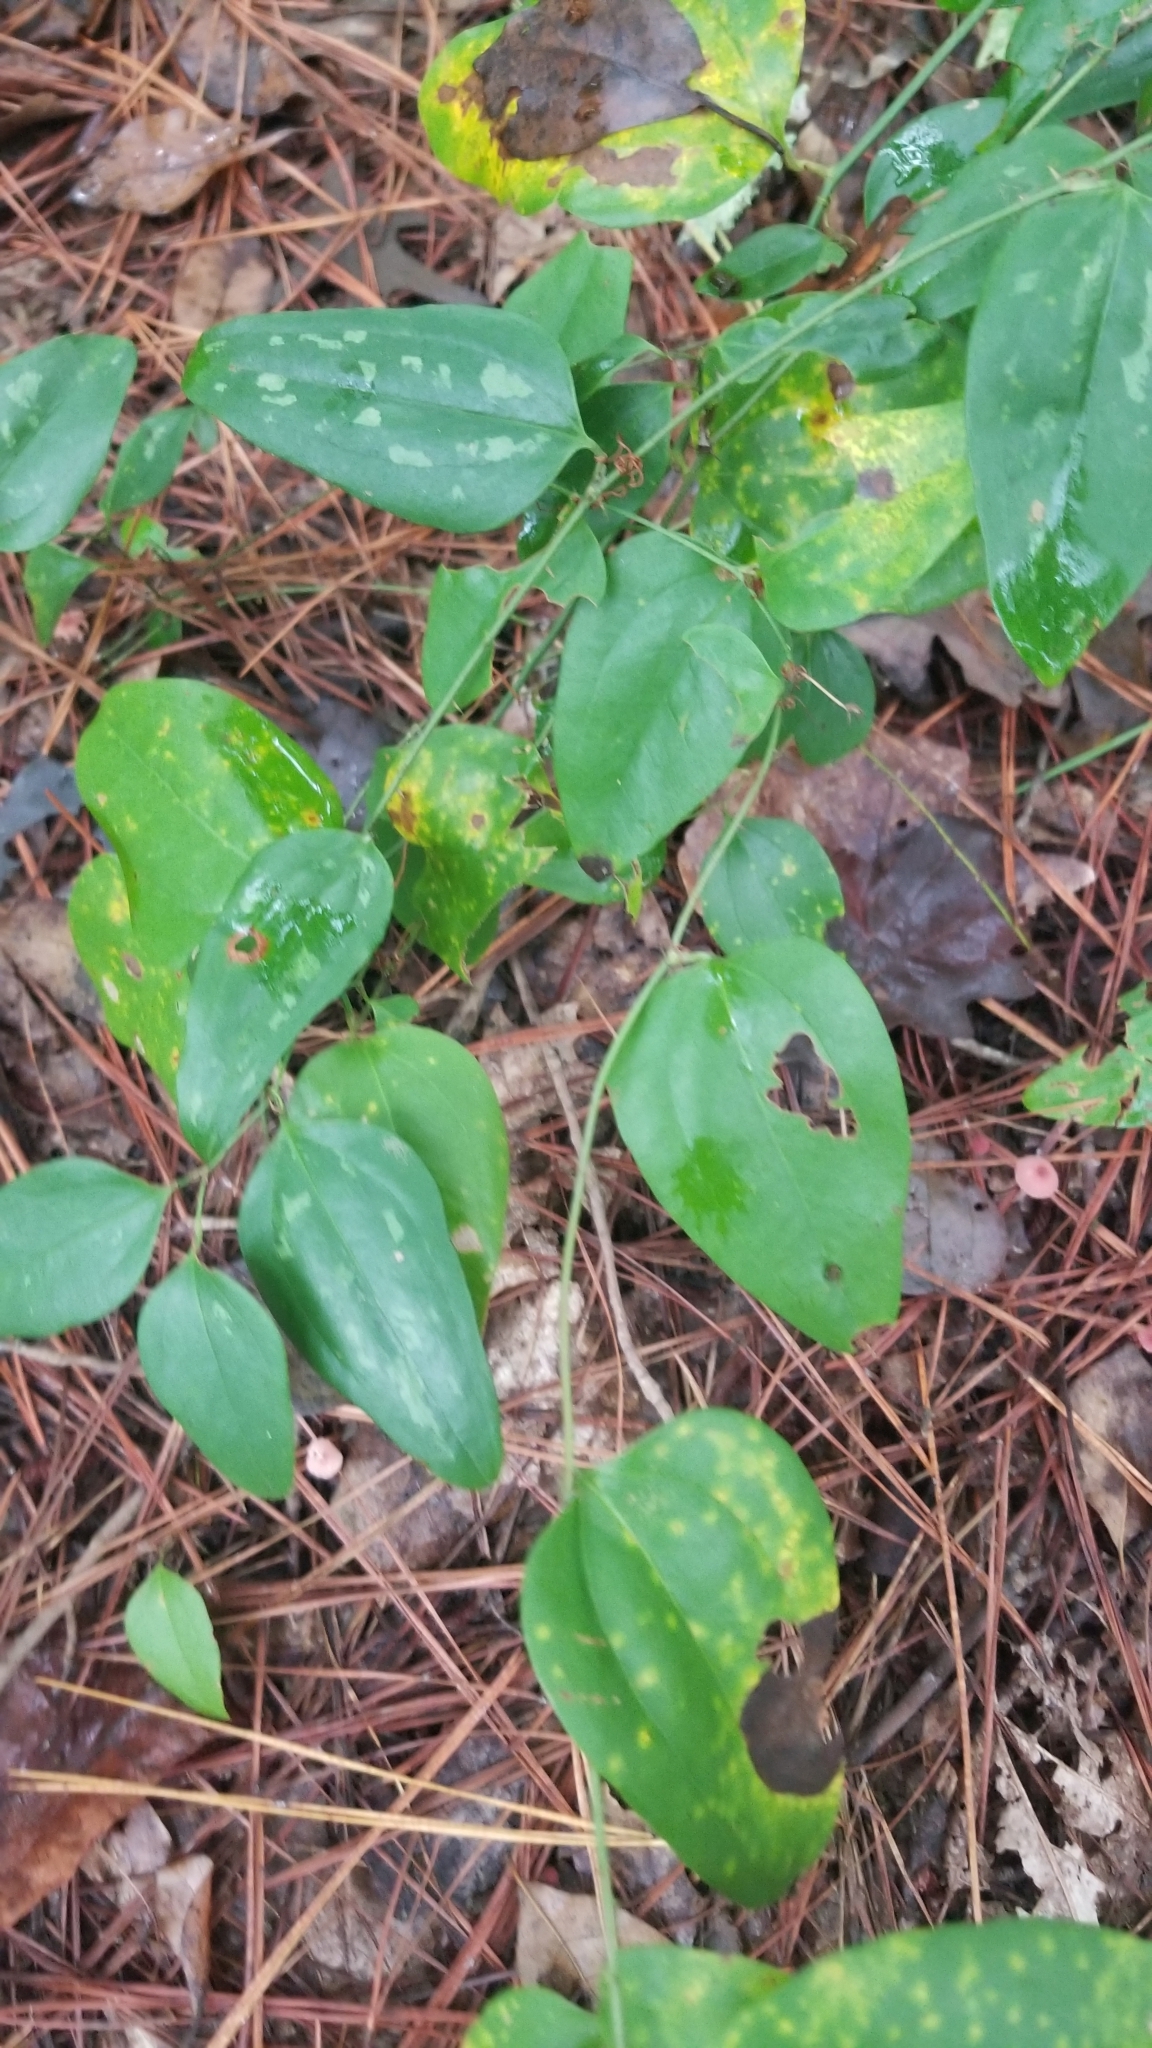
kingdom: Plantae
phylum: Tracheophyta
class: Liliopsida
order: Liliales
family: Smilacaceae
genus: Smilax
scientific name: Smilax glauca
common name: Cat greenbrier
